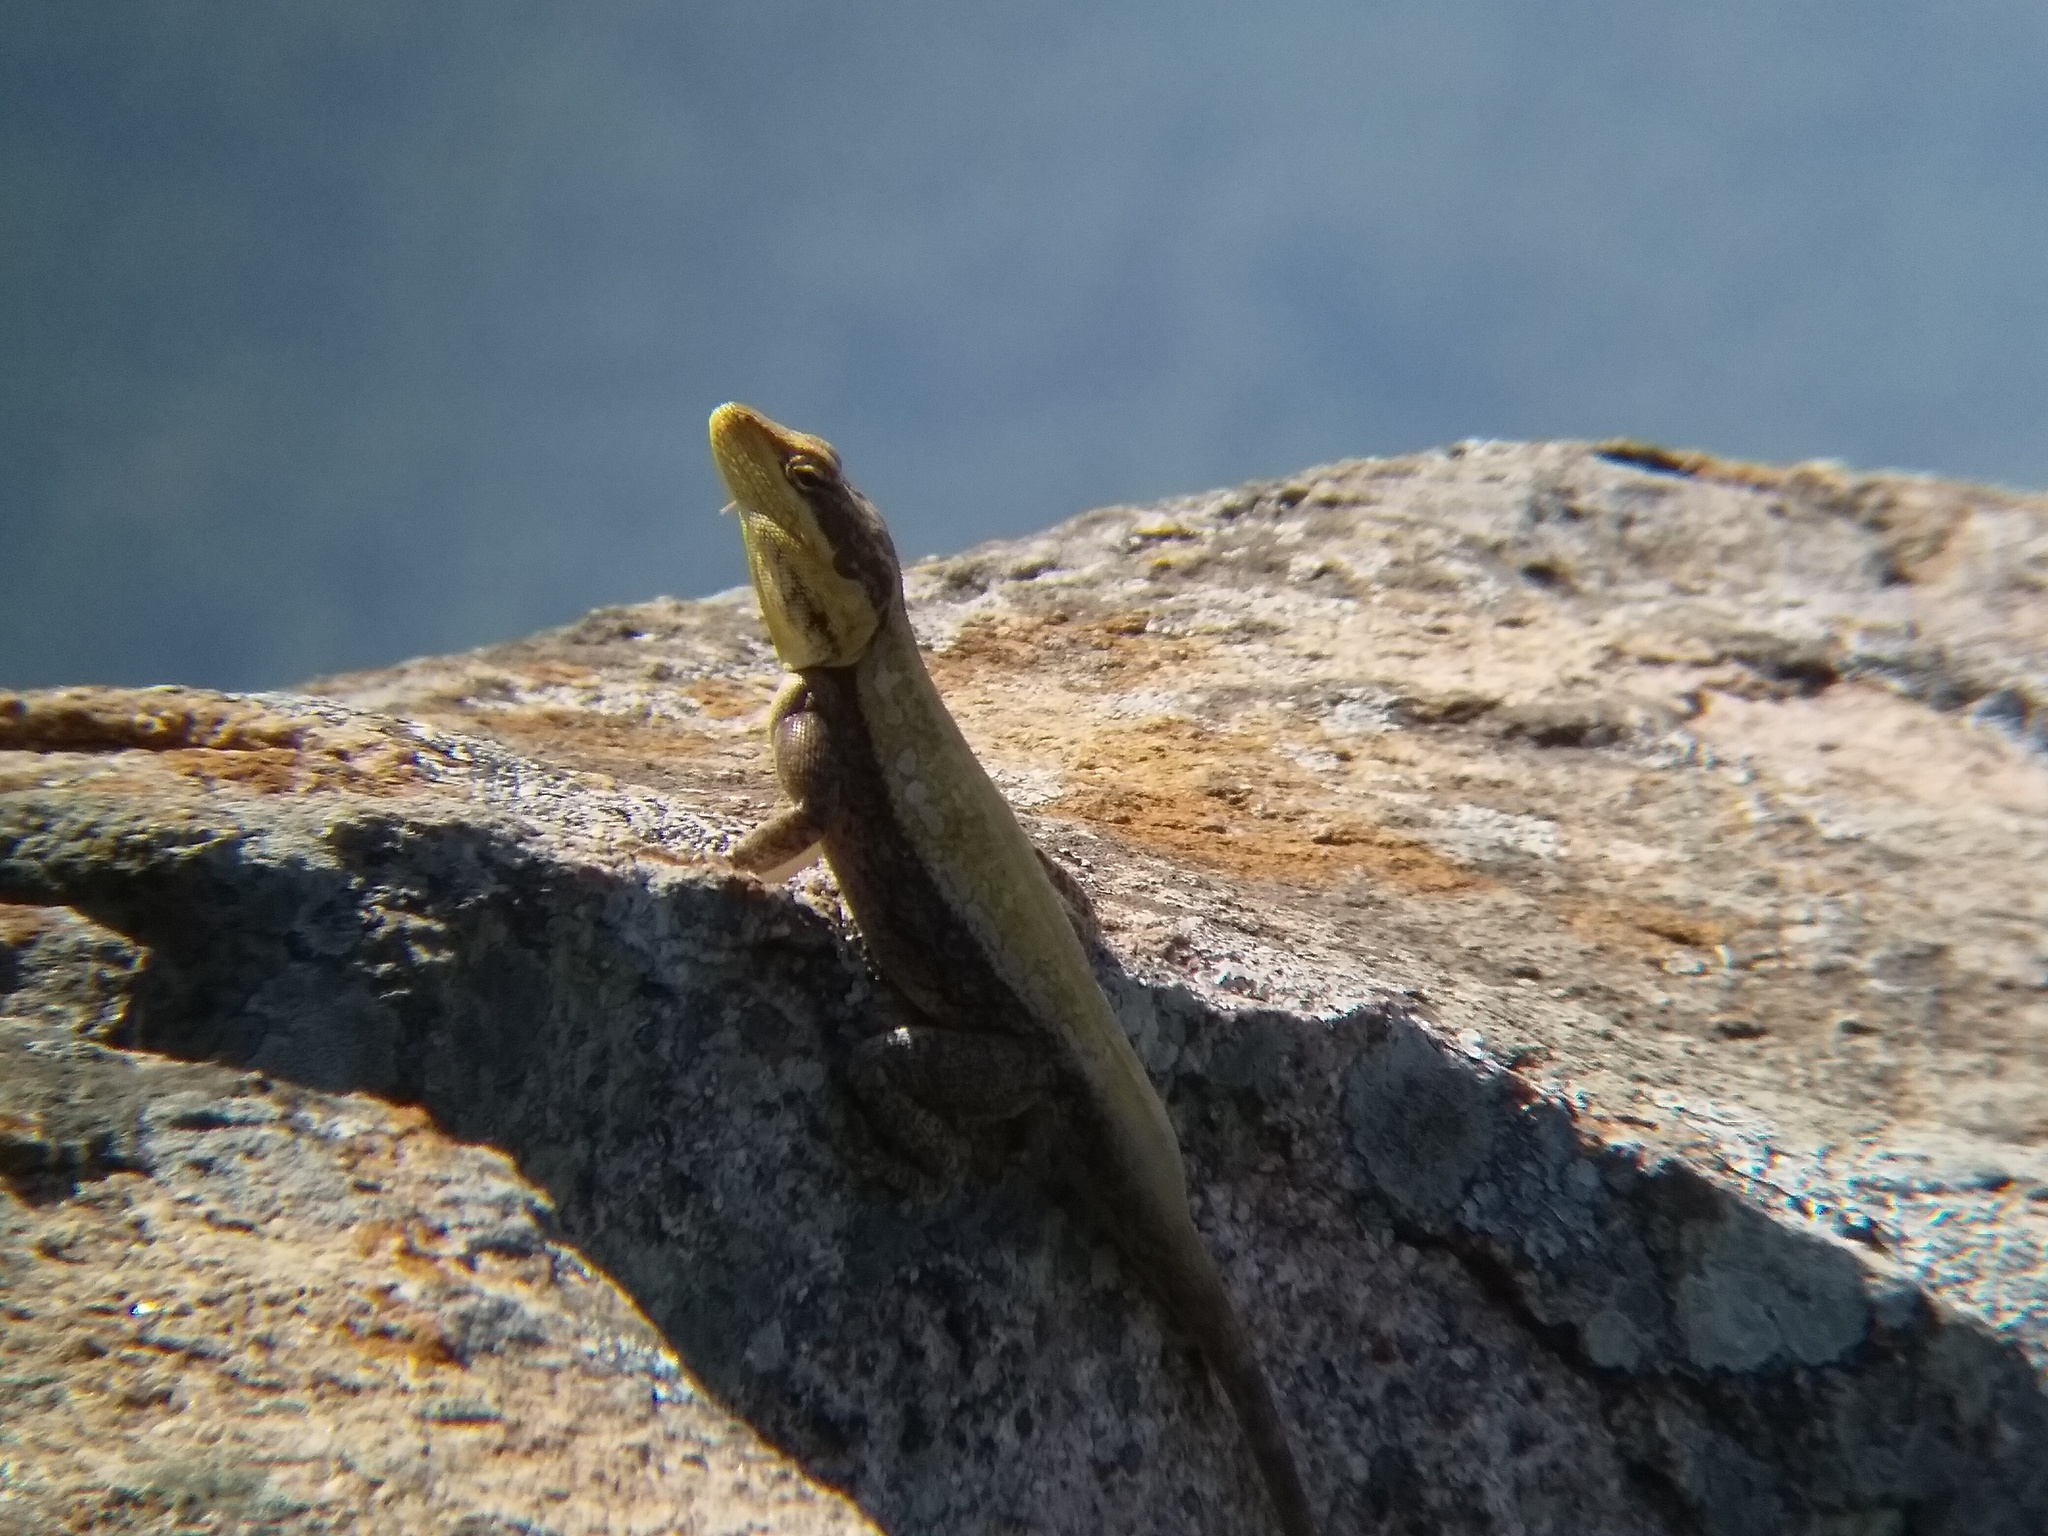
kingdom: Animalia
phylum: Chordata
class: Squamata
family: Agamidae
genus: Psammophilus
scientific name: Psammophilus dorsalis
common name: South indian rock agama
